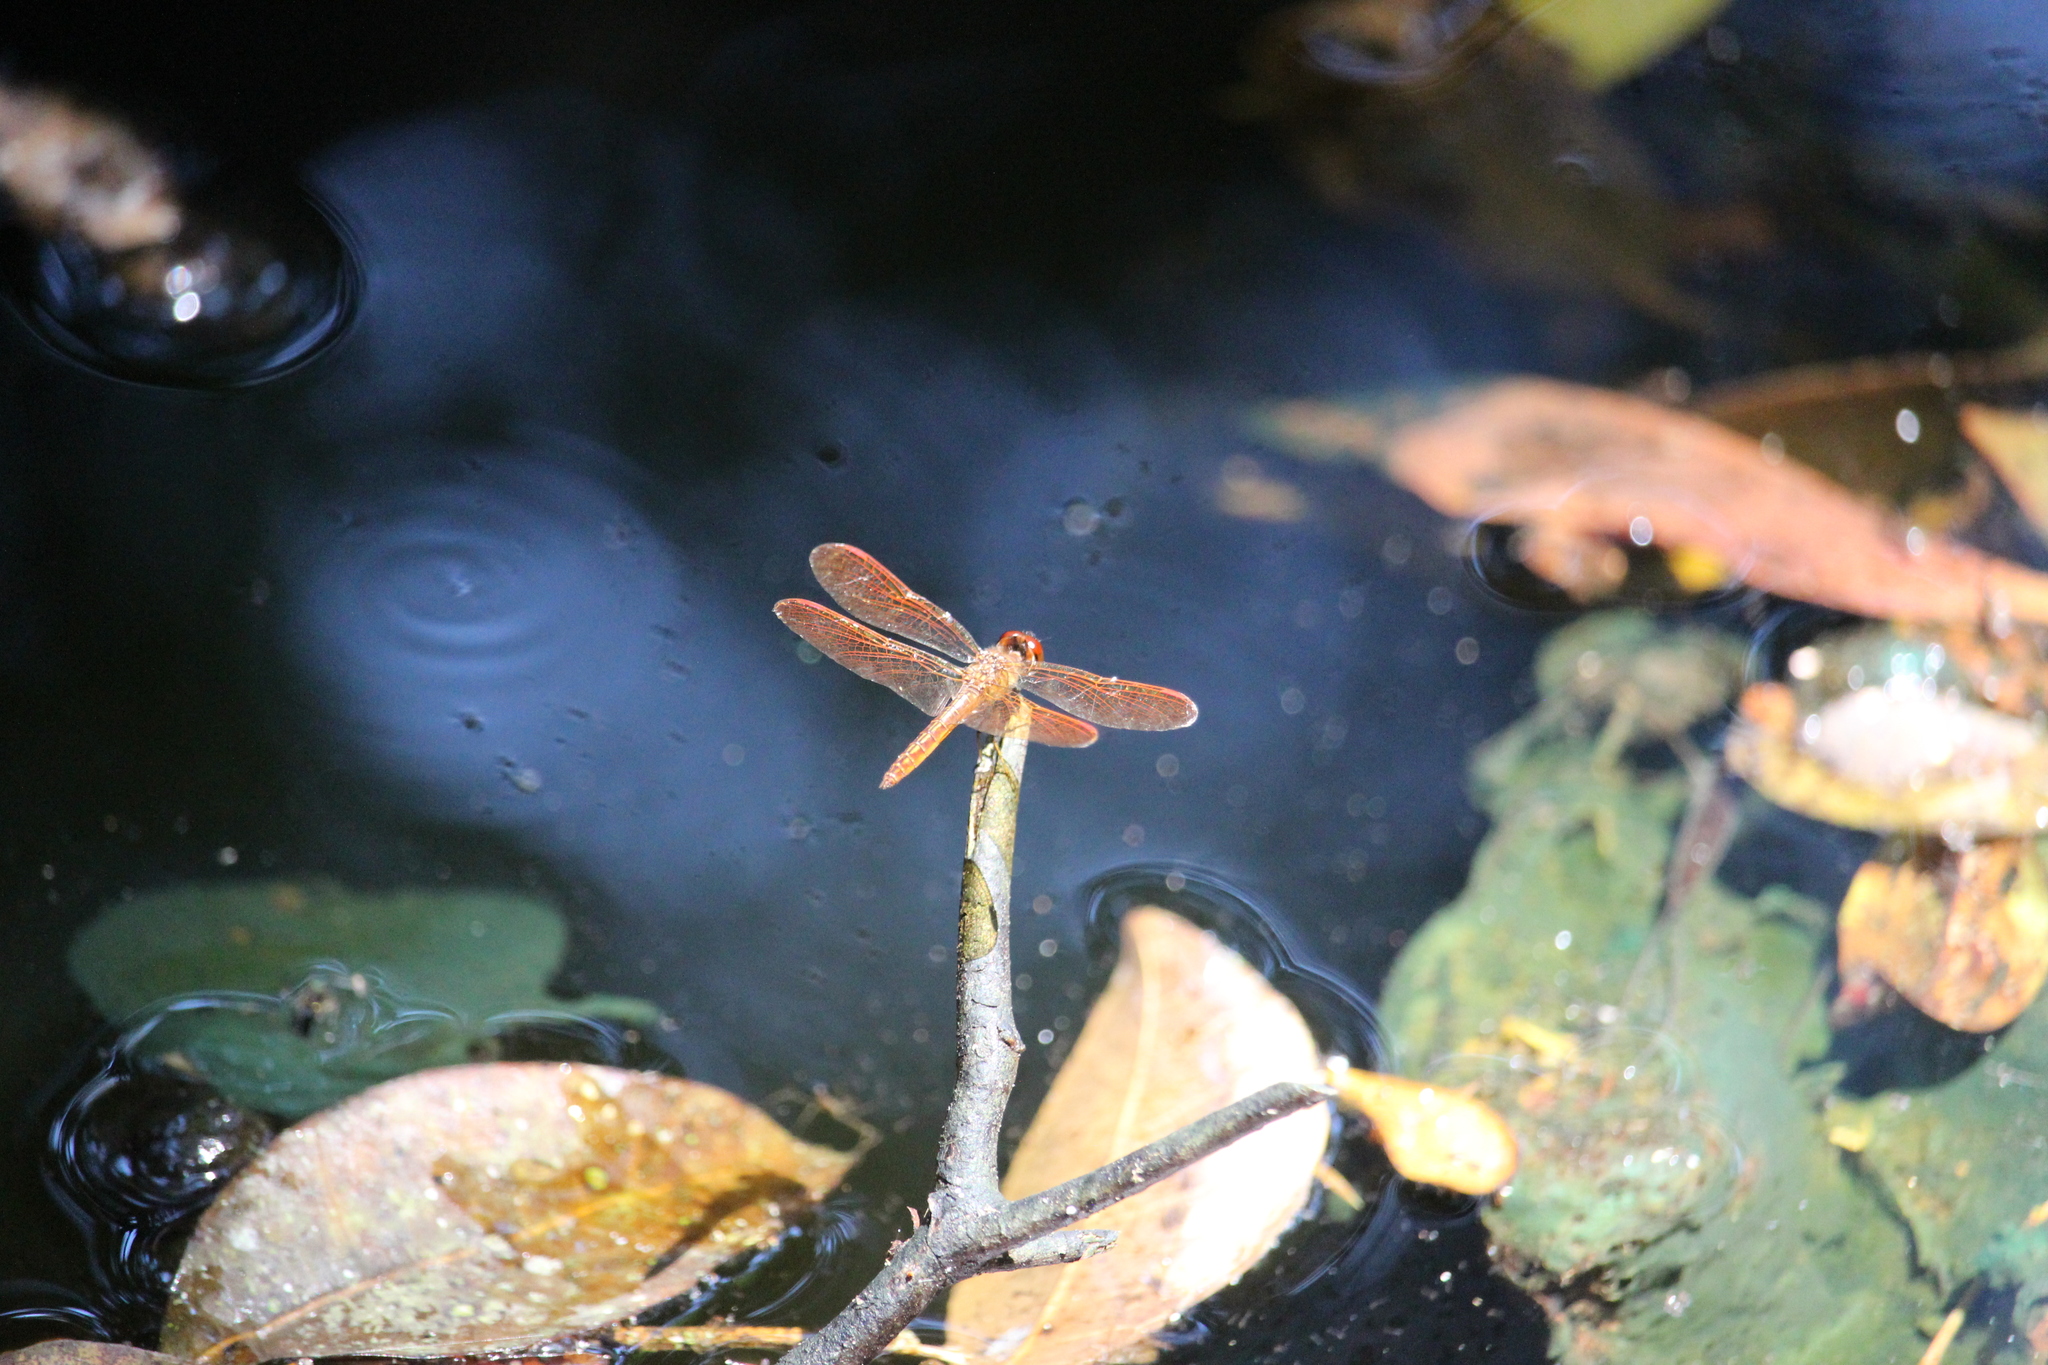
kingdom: Animalia
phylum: Arthropoda
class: Insecta
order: Odonata
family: Libellulidae
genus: Perithemis
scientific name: Perithemis domitia
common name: Slough amberwing
